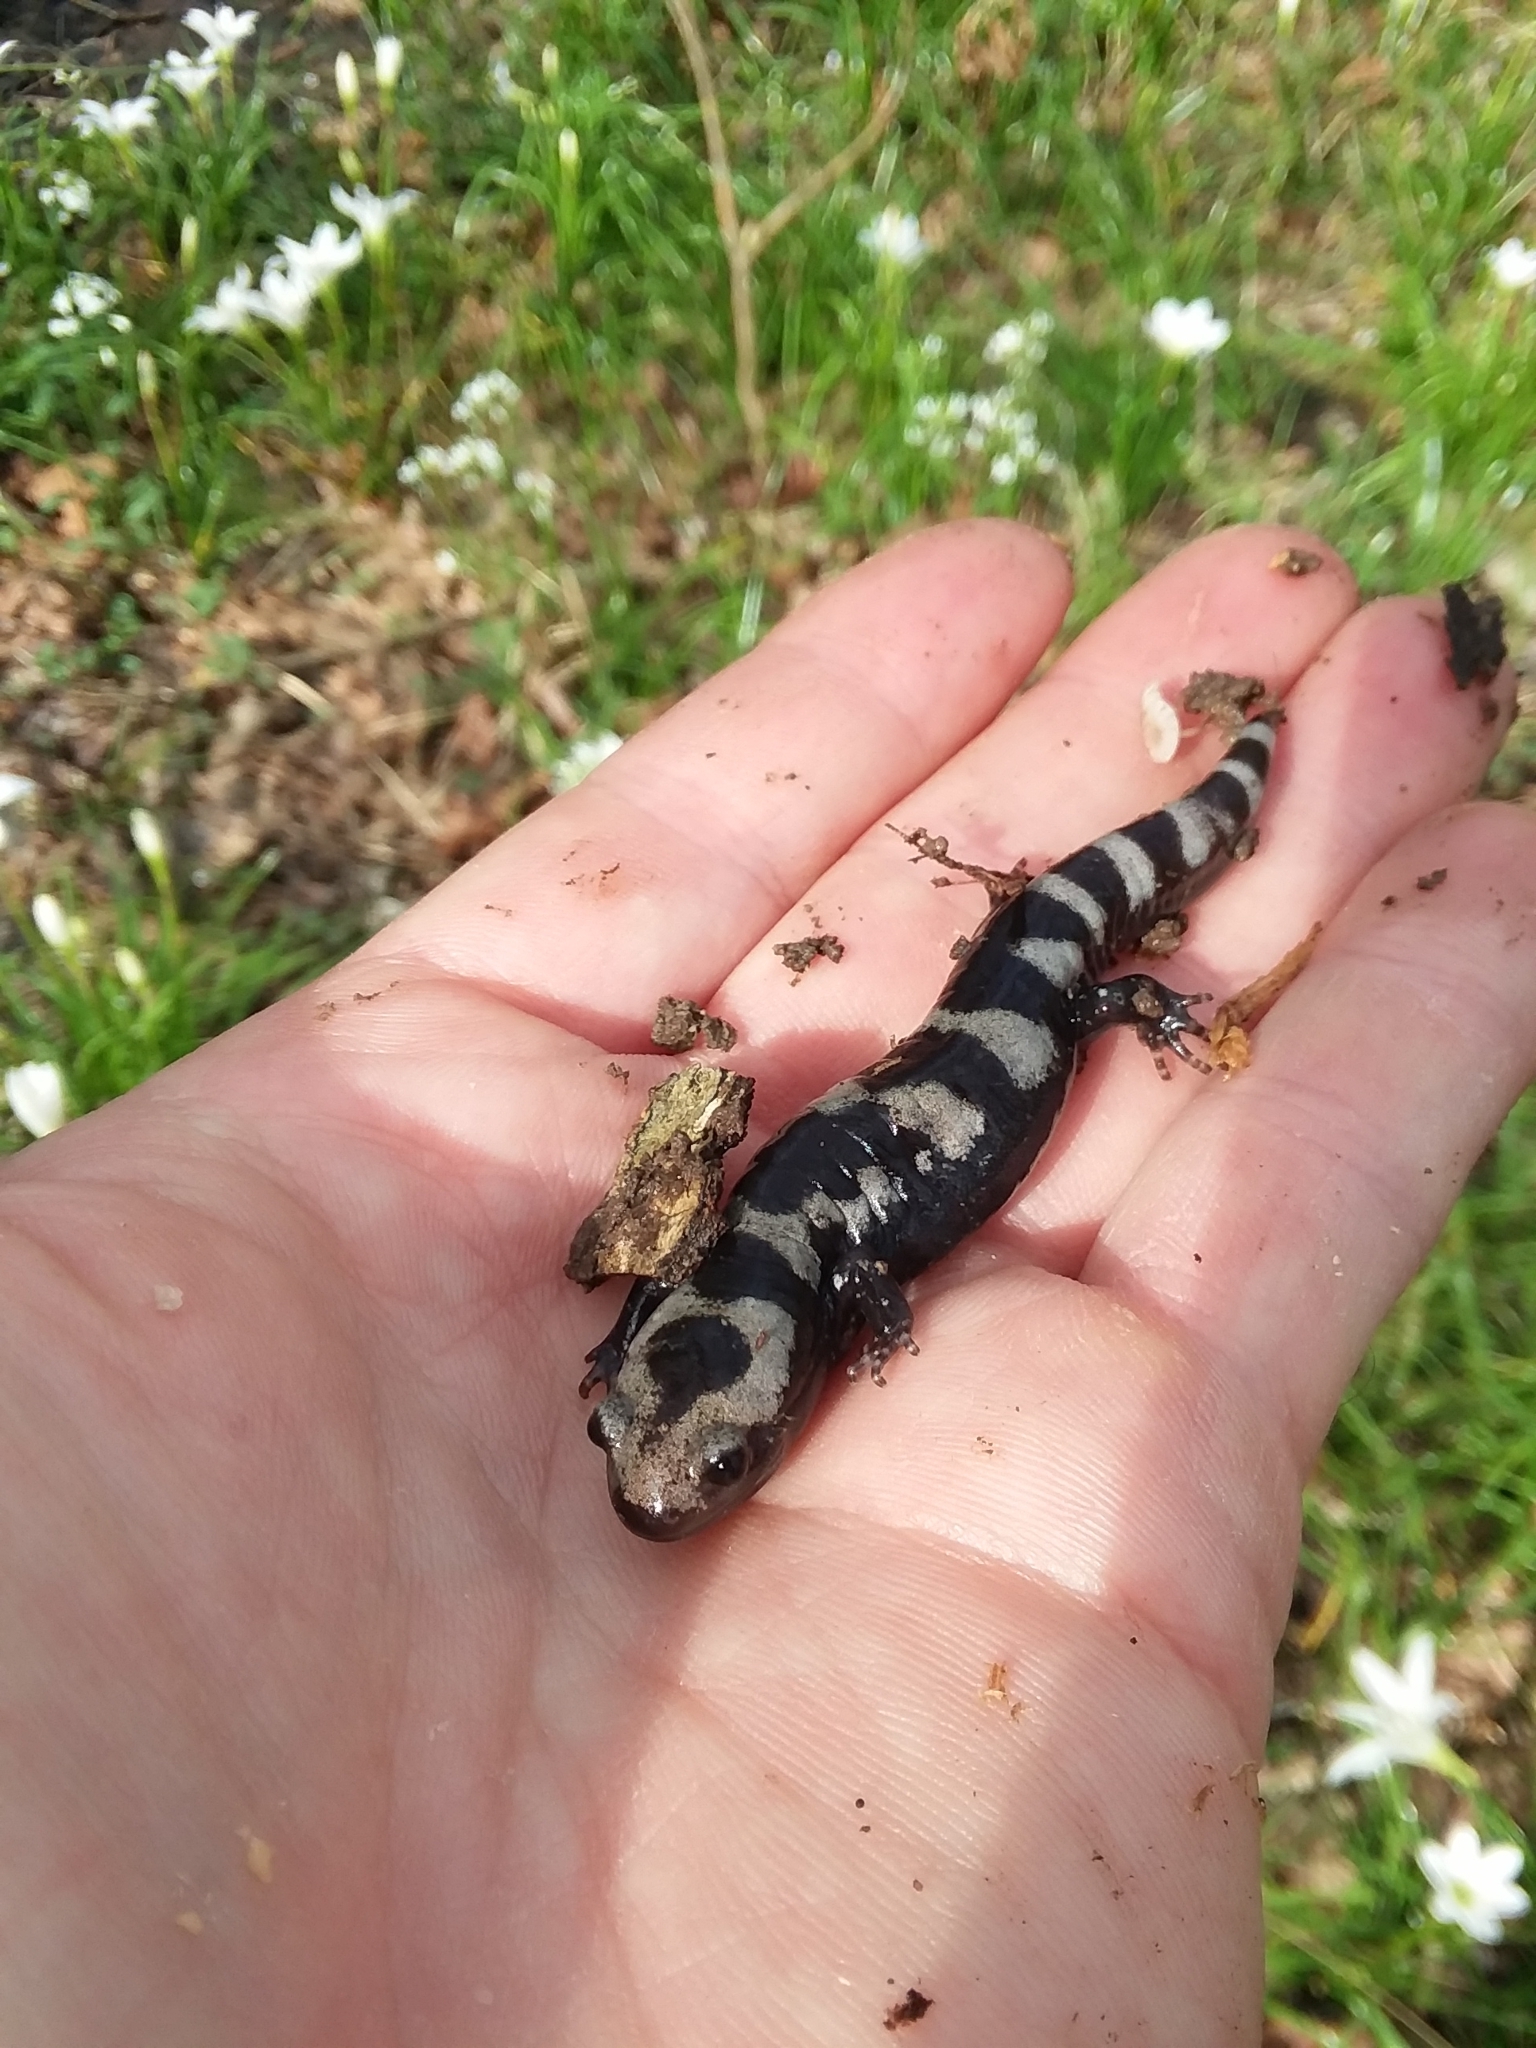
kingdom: Animalia
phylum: Chordata
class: Amphibia
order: Caudata
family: Ambystomatidae
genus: Ambystoma
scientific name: Ambystoma opacum
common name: Marbled salamander
